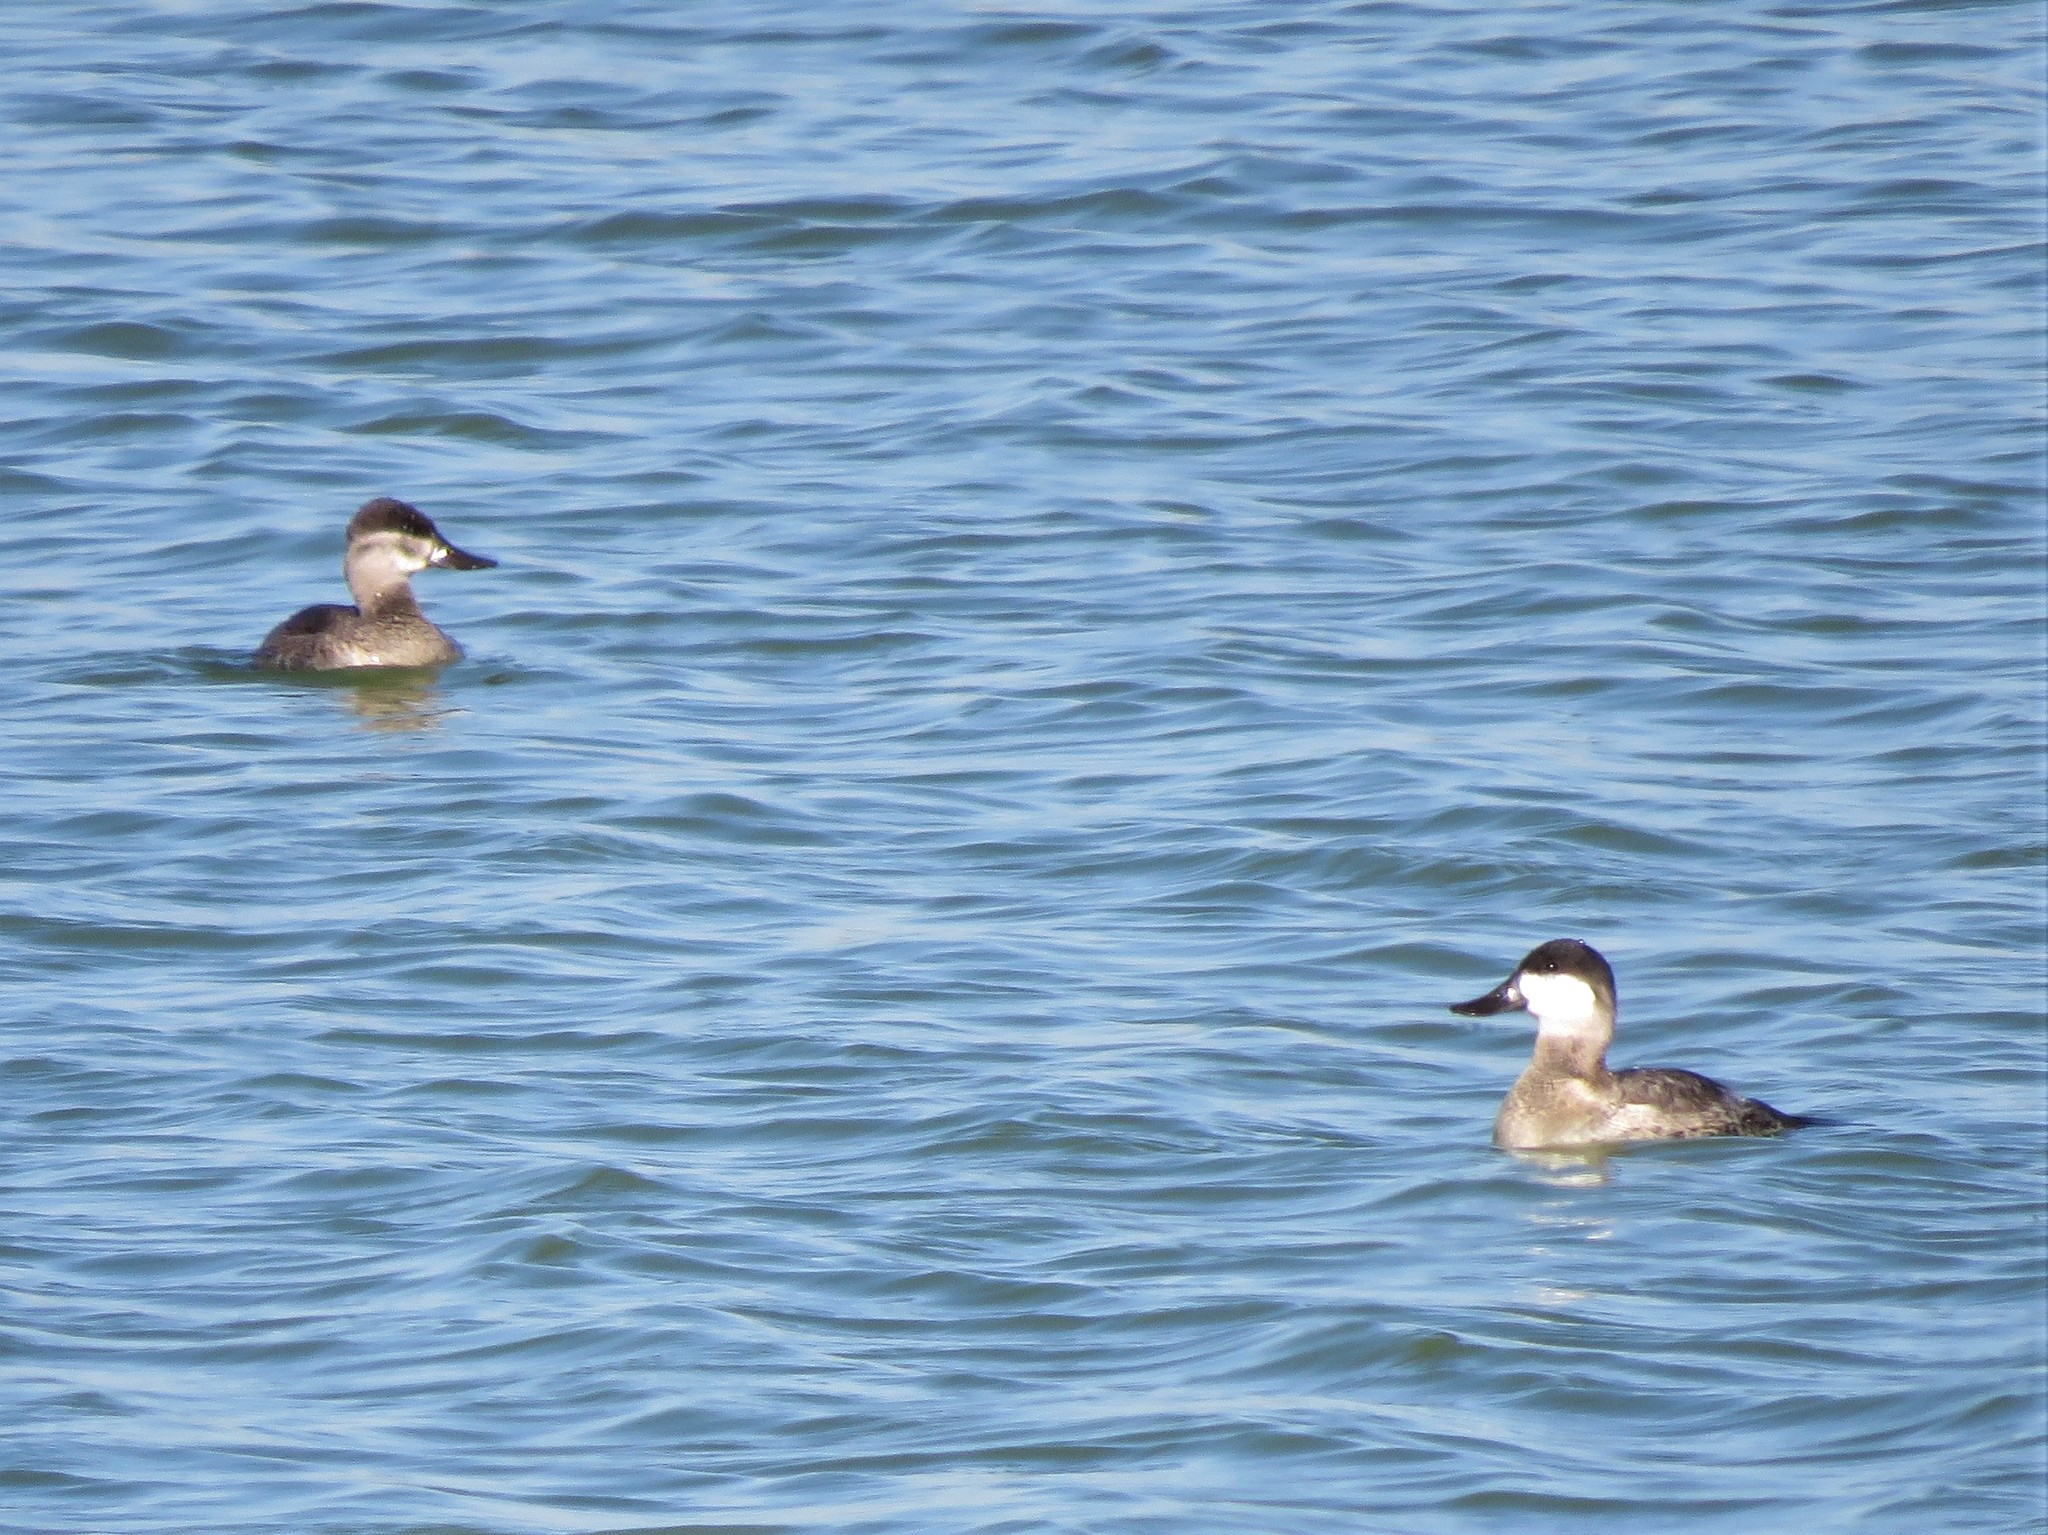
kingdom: Animalia
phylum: Chordata
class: Aves
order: Anseriformes
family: Anatidae
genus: Oxyura
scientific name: Oxyura jamaicensis
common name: Ruddy duck
